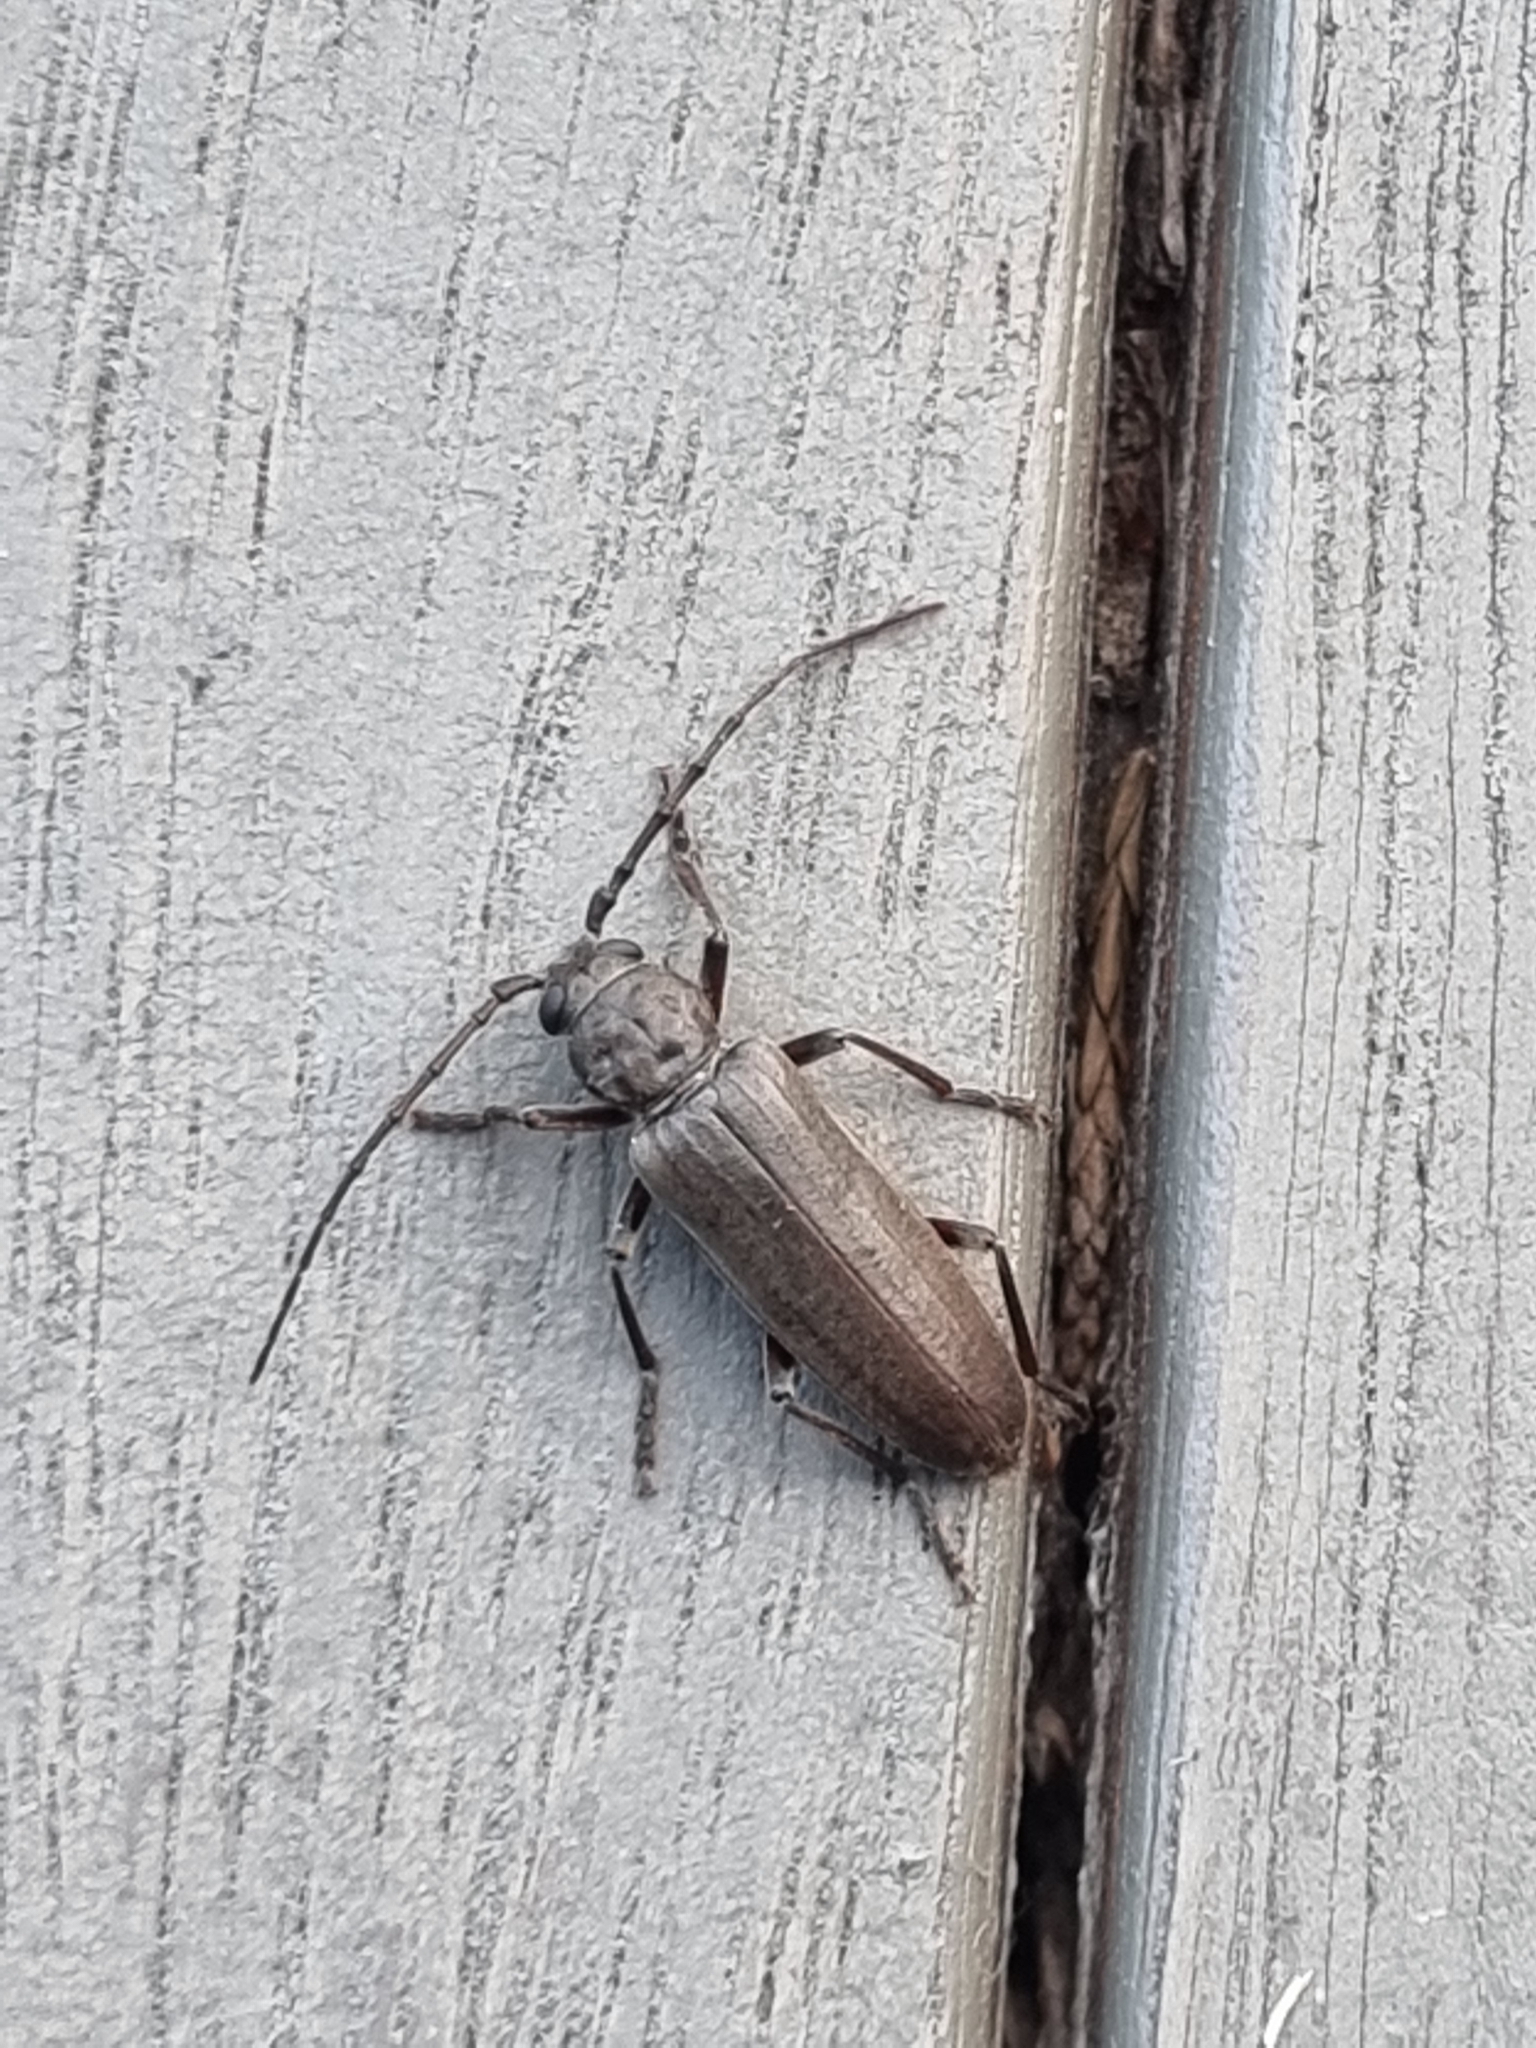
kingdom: Animalia
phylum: Arthropoda
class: Insecta
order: Coleoptera
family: Cerambycidae
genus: Arhopalus
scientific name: Arhopalus ferus
